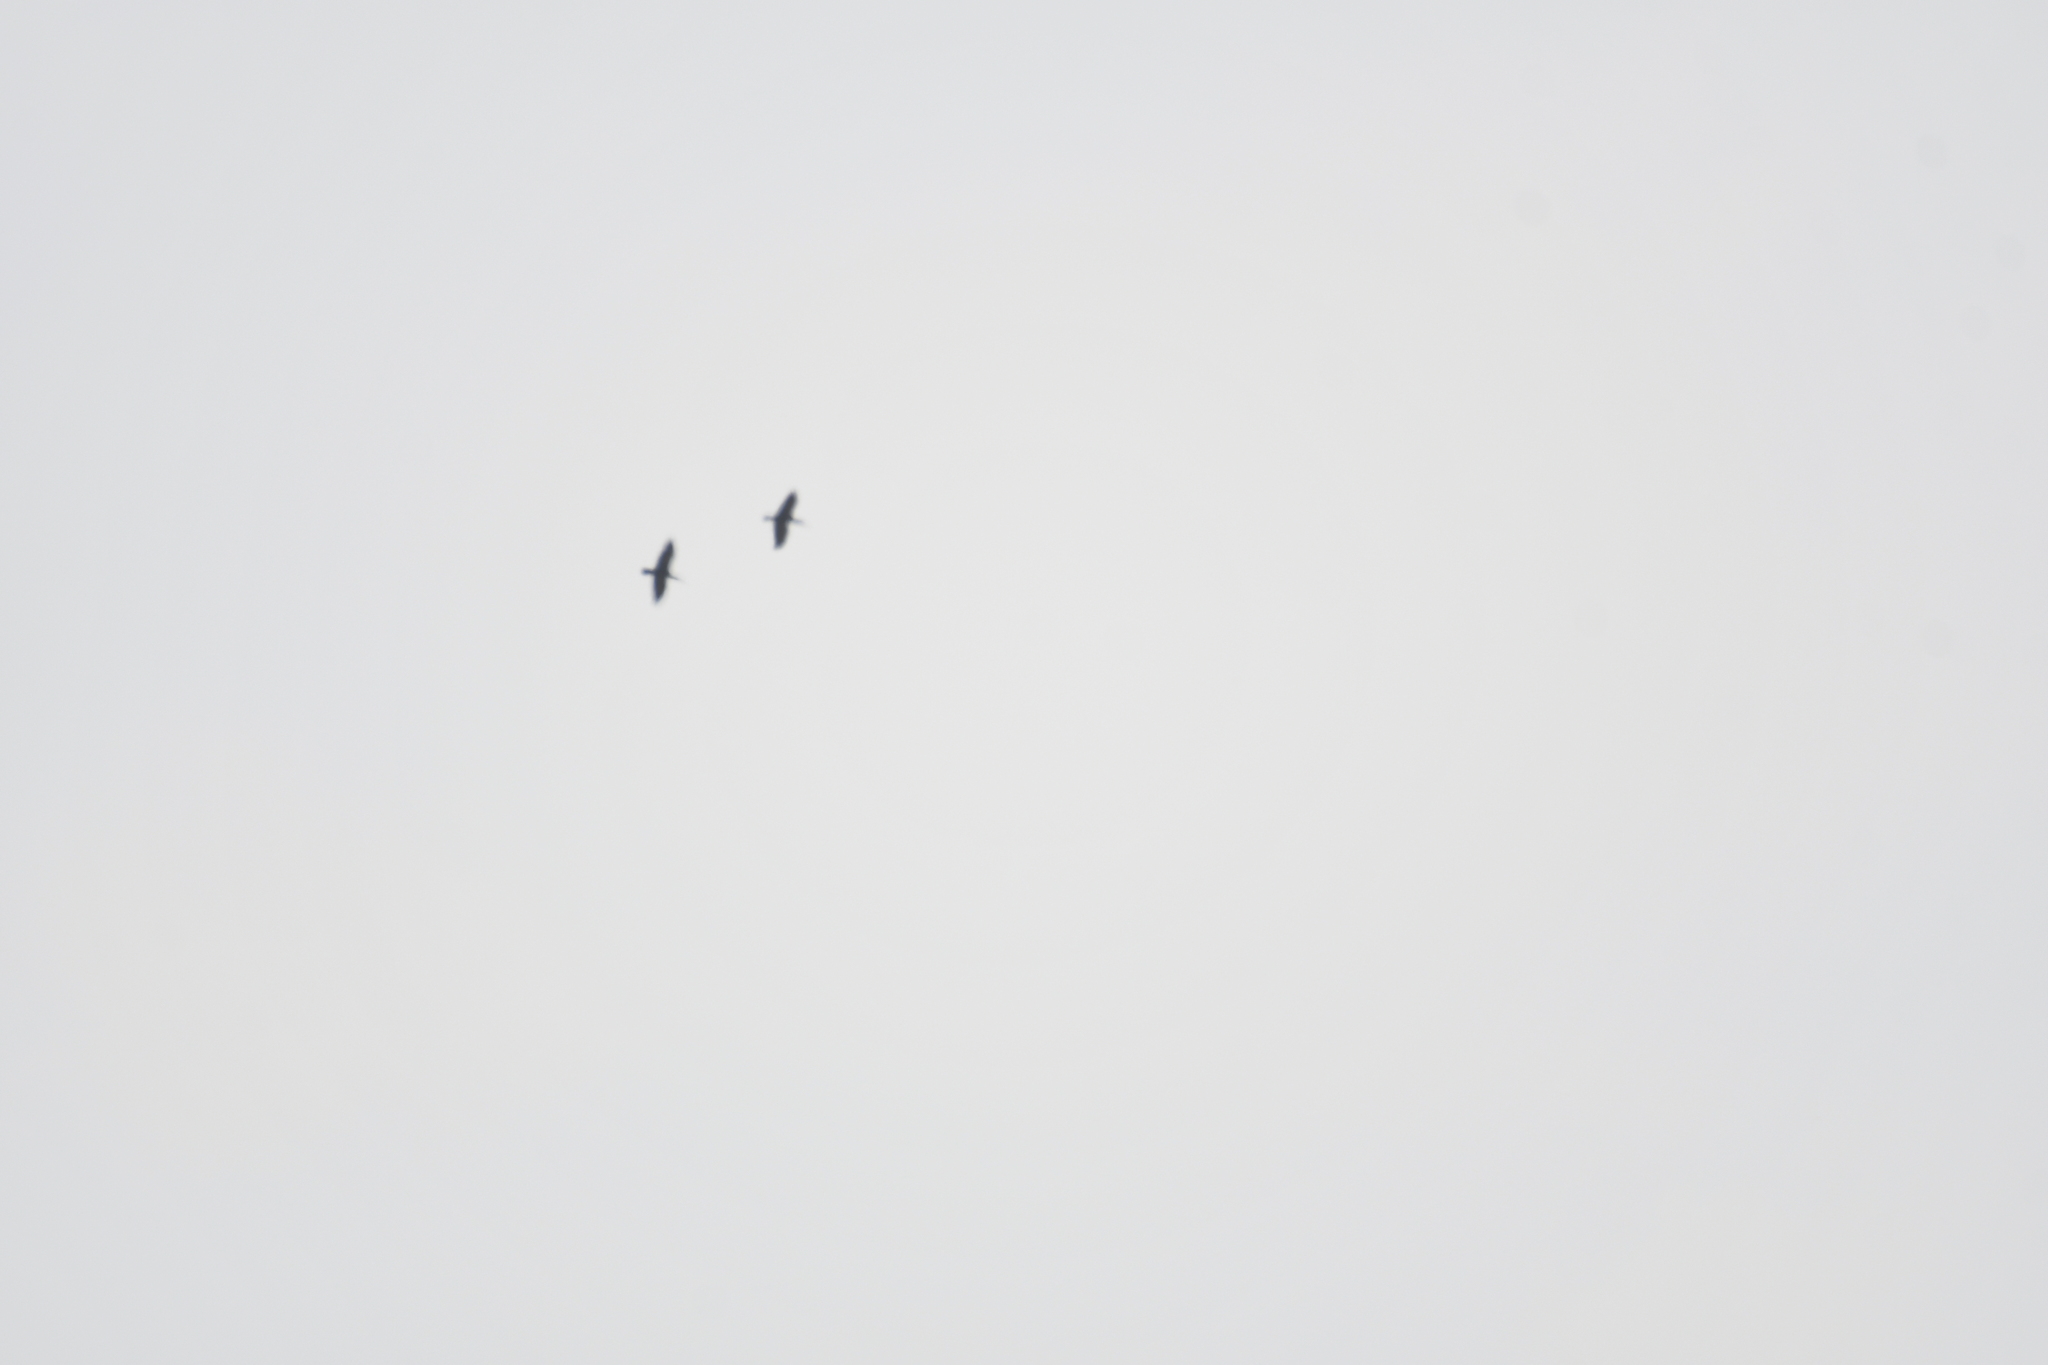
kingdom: Animalia
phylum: Chordata
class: Aves
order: Pelecaniformes
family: Threskiornithidae
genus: Geronticus
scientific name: Geronticus eremita
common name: Northern bald ibis
